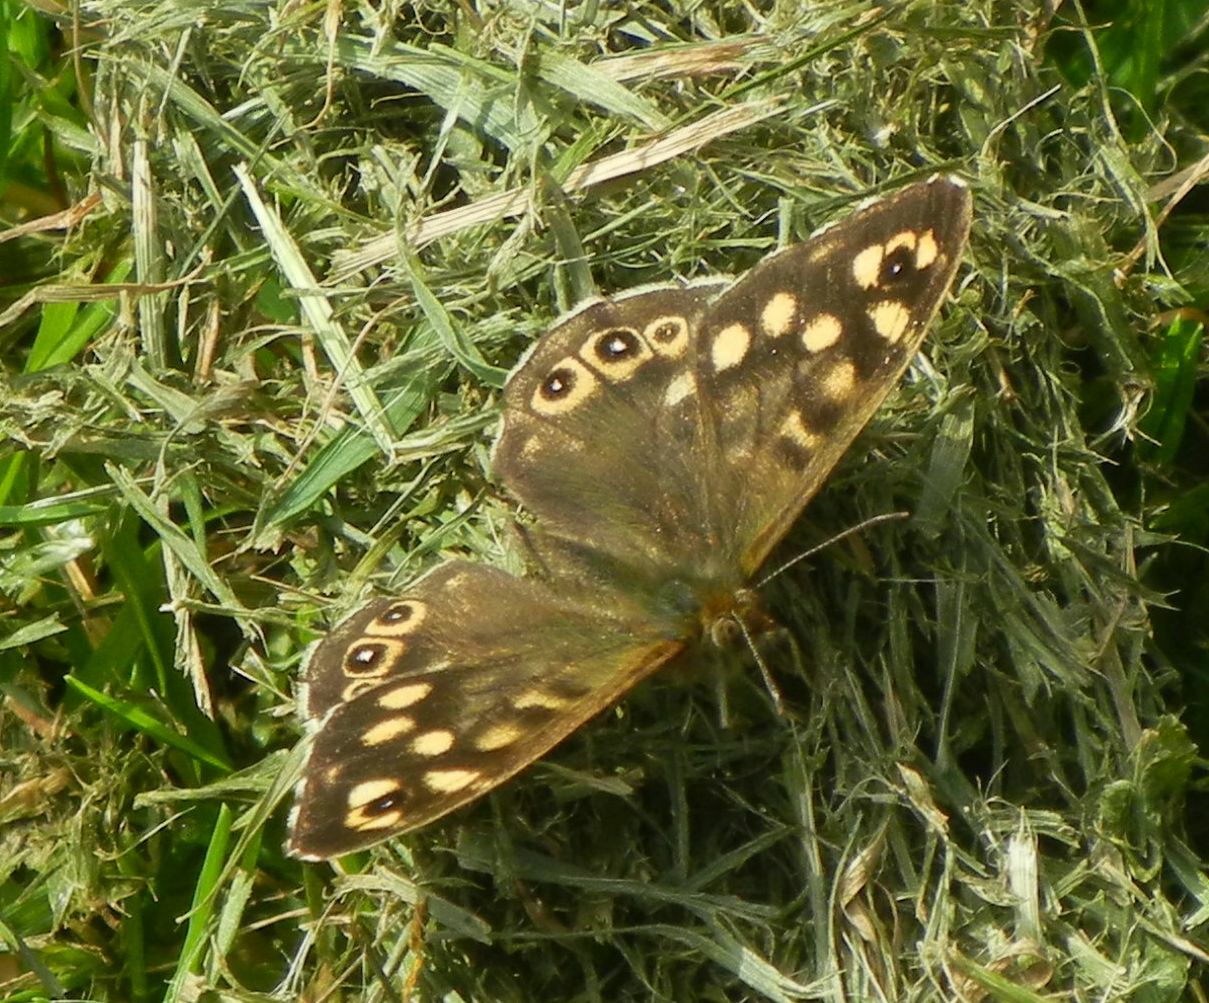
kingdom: Animalia
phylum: Arthropoda
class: Insecta
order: Lepidoptera
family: Nymphalidae
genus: Pararge
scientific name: Pararge aegeria
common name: Speckled wood
